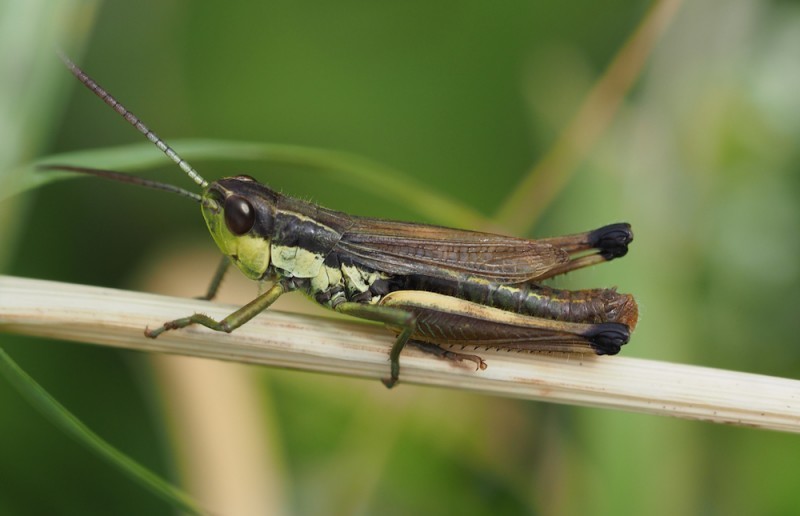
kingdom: Animalia
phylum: Arthropoda
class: Insecta
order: Orthoptera
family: Acrididae
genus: Pseudochorthippus
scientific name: Pseudochorthippus parallelus
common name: Meadow grasshopper
